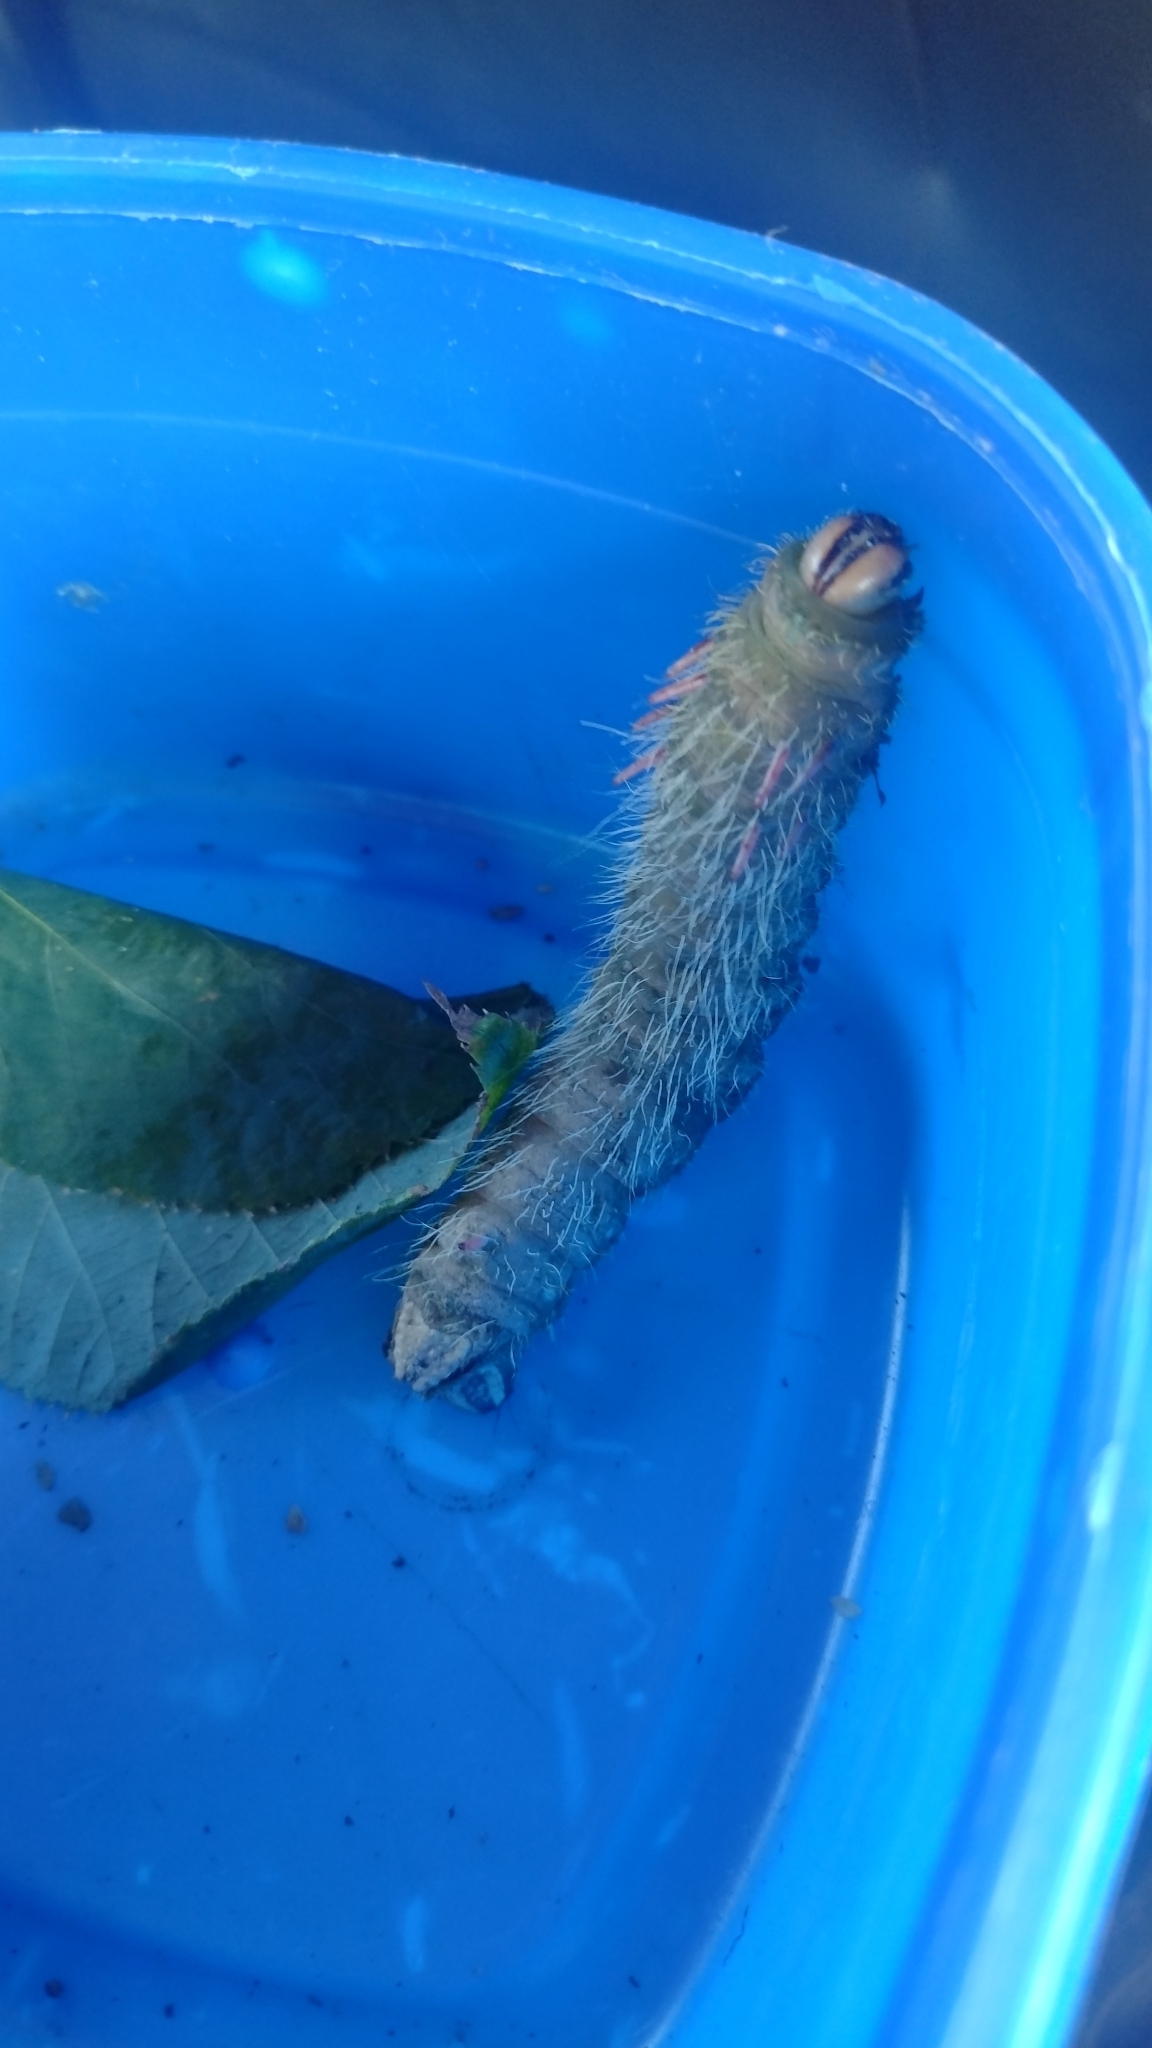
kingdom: Animalia
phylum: Arthropoda
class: Insecta
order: Lepidoptera
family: Saturniidae
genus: Eacles
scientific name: Eacles imperialis
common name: Imperial moth
